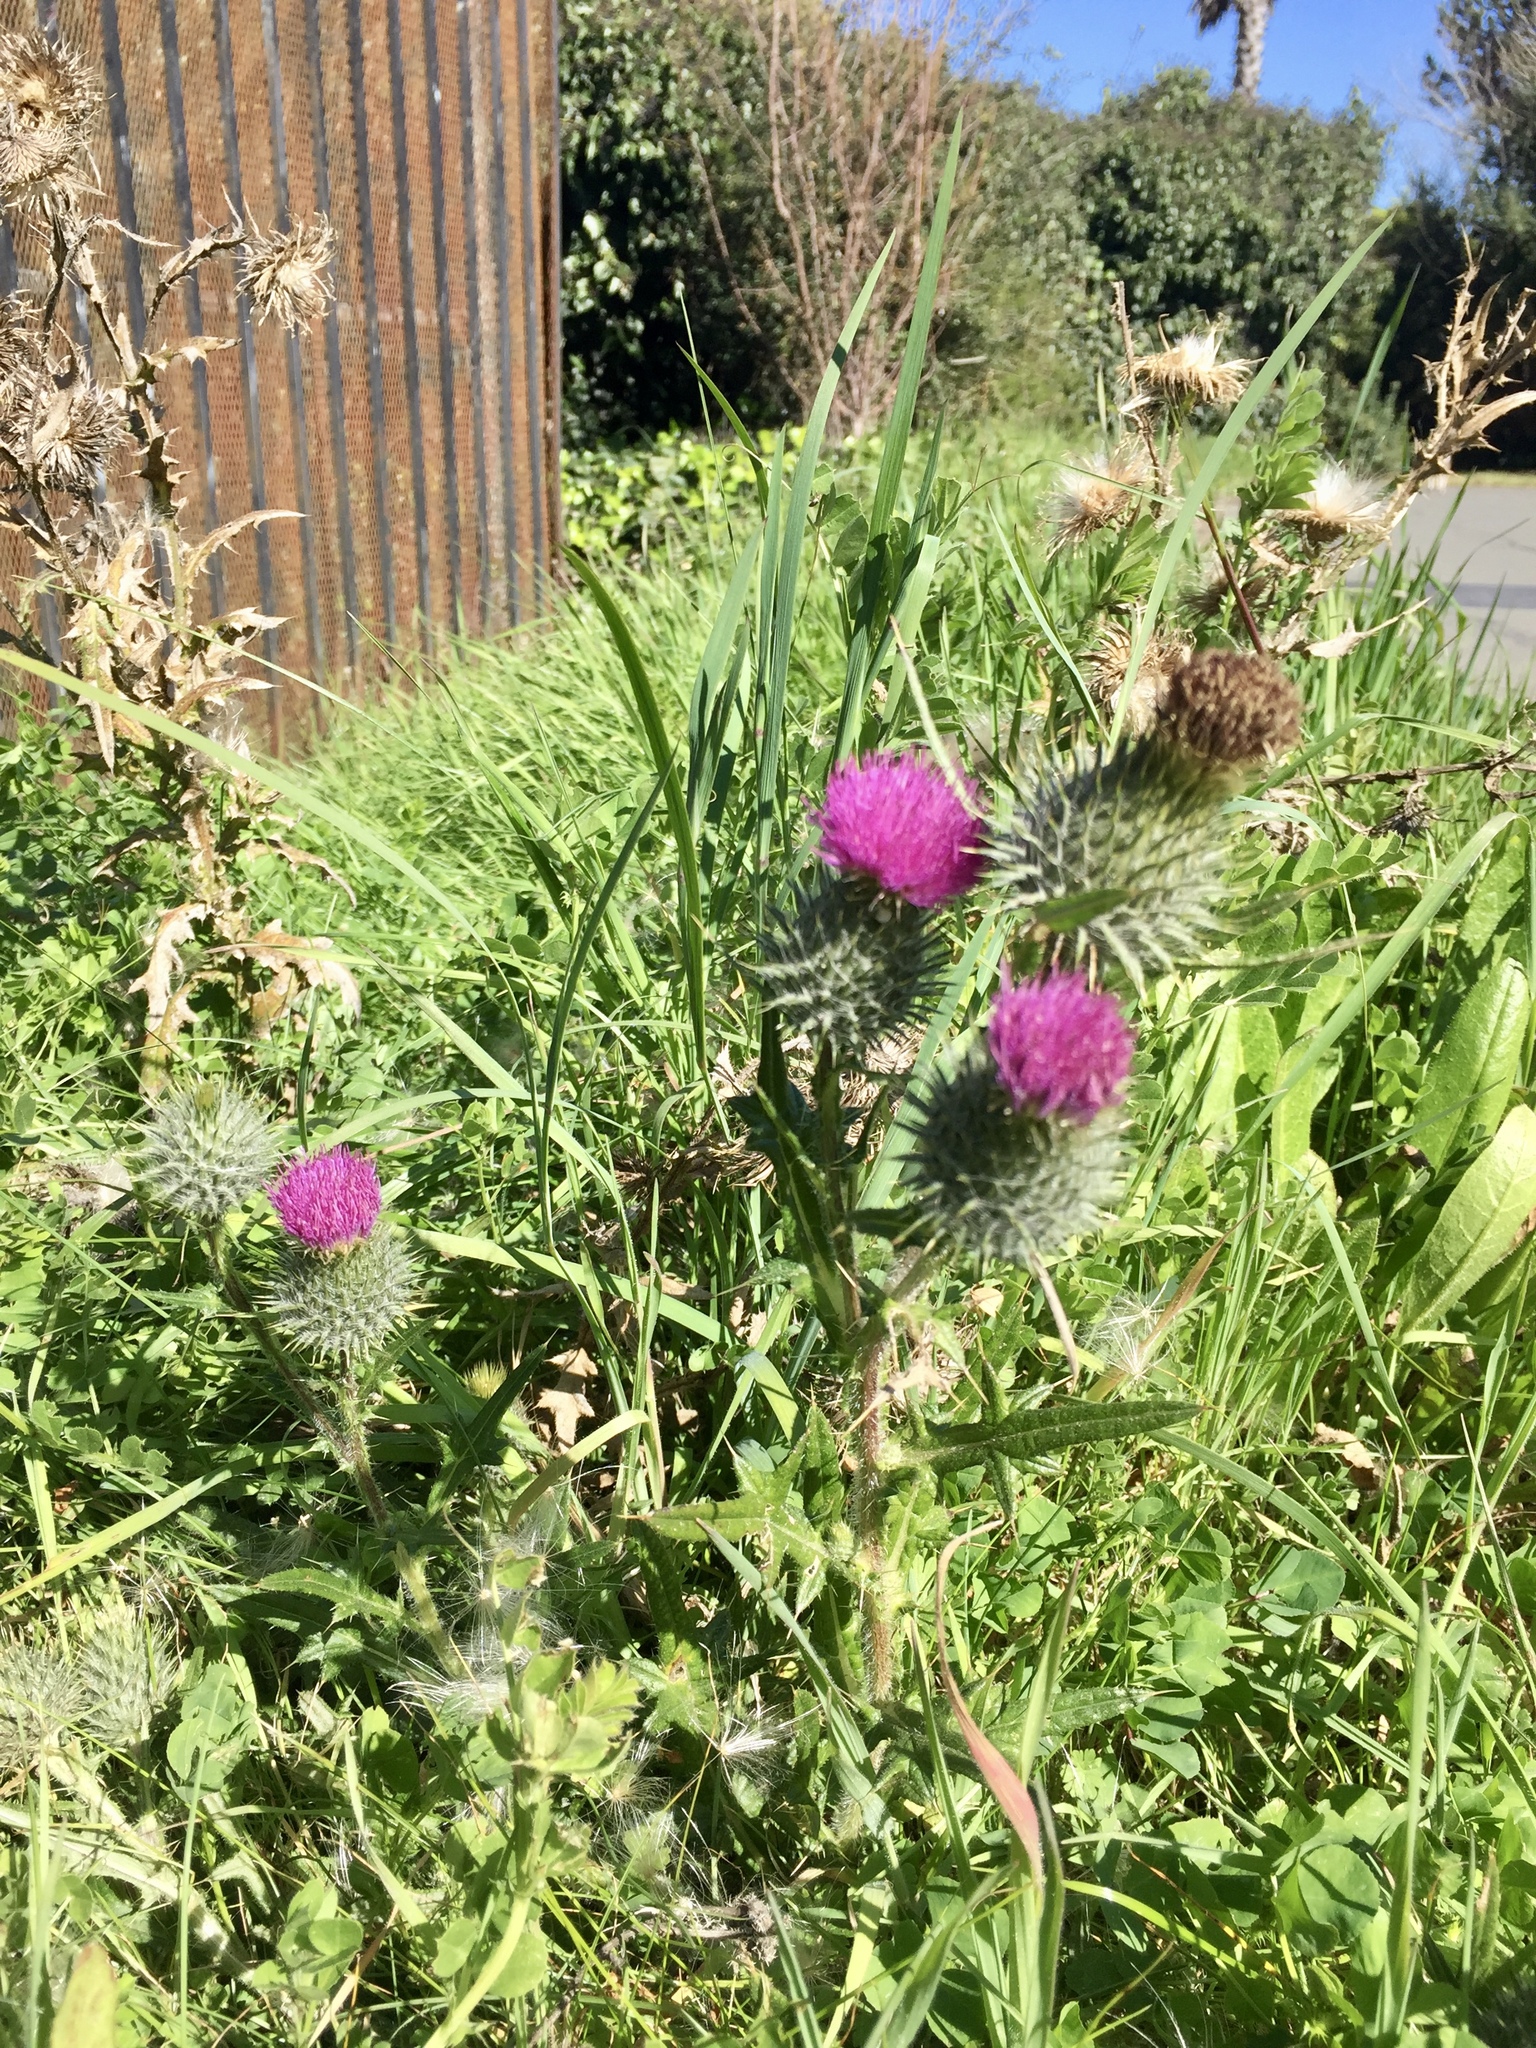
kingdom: Plantae
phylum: Tracheophyta
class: Magnoliopsida
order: Asterales
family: Asteraceae
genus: Cirsium
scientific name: Cirsium vulgare
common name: Bull thistle
